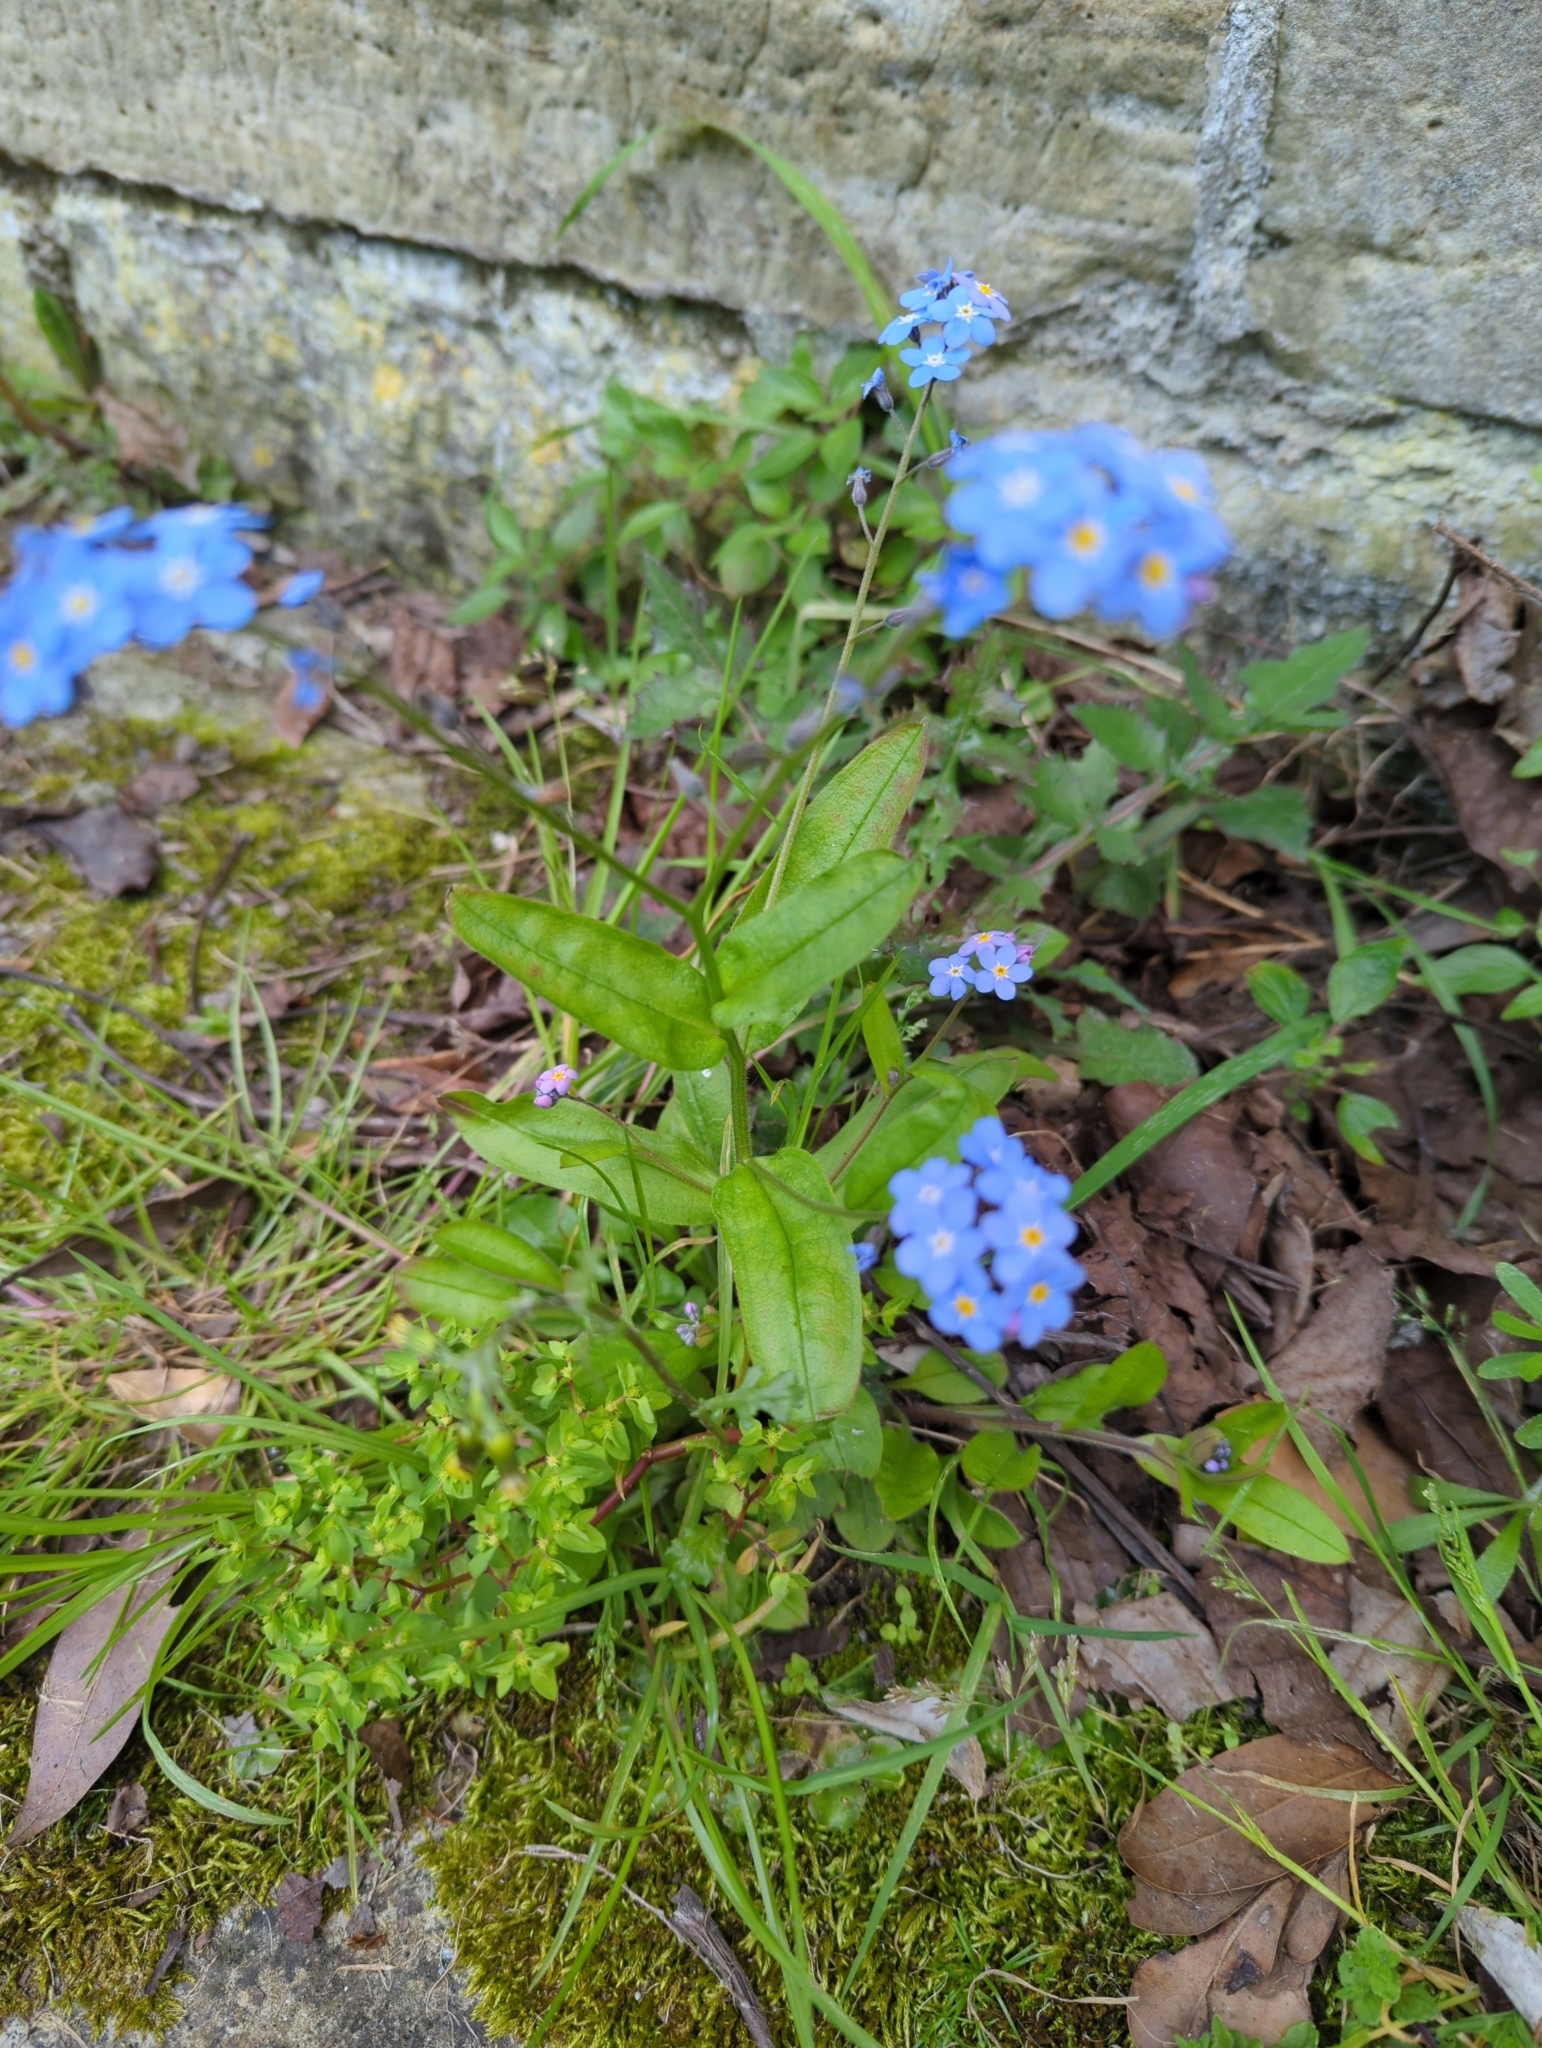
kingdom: Plantae
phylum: Tracheophyta
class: Magnoliopsida
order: Boraginales
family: Boraginaceae
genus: Myosotis
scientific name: Myosotis sylvatica
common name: Wood forget-me-not
